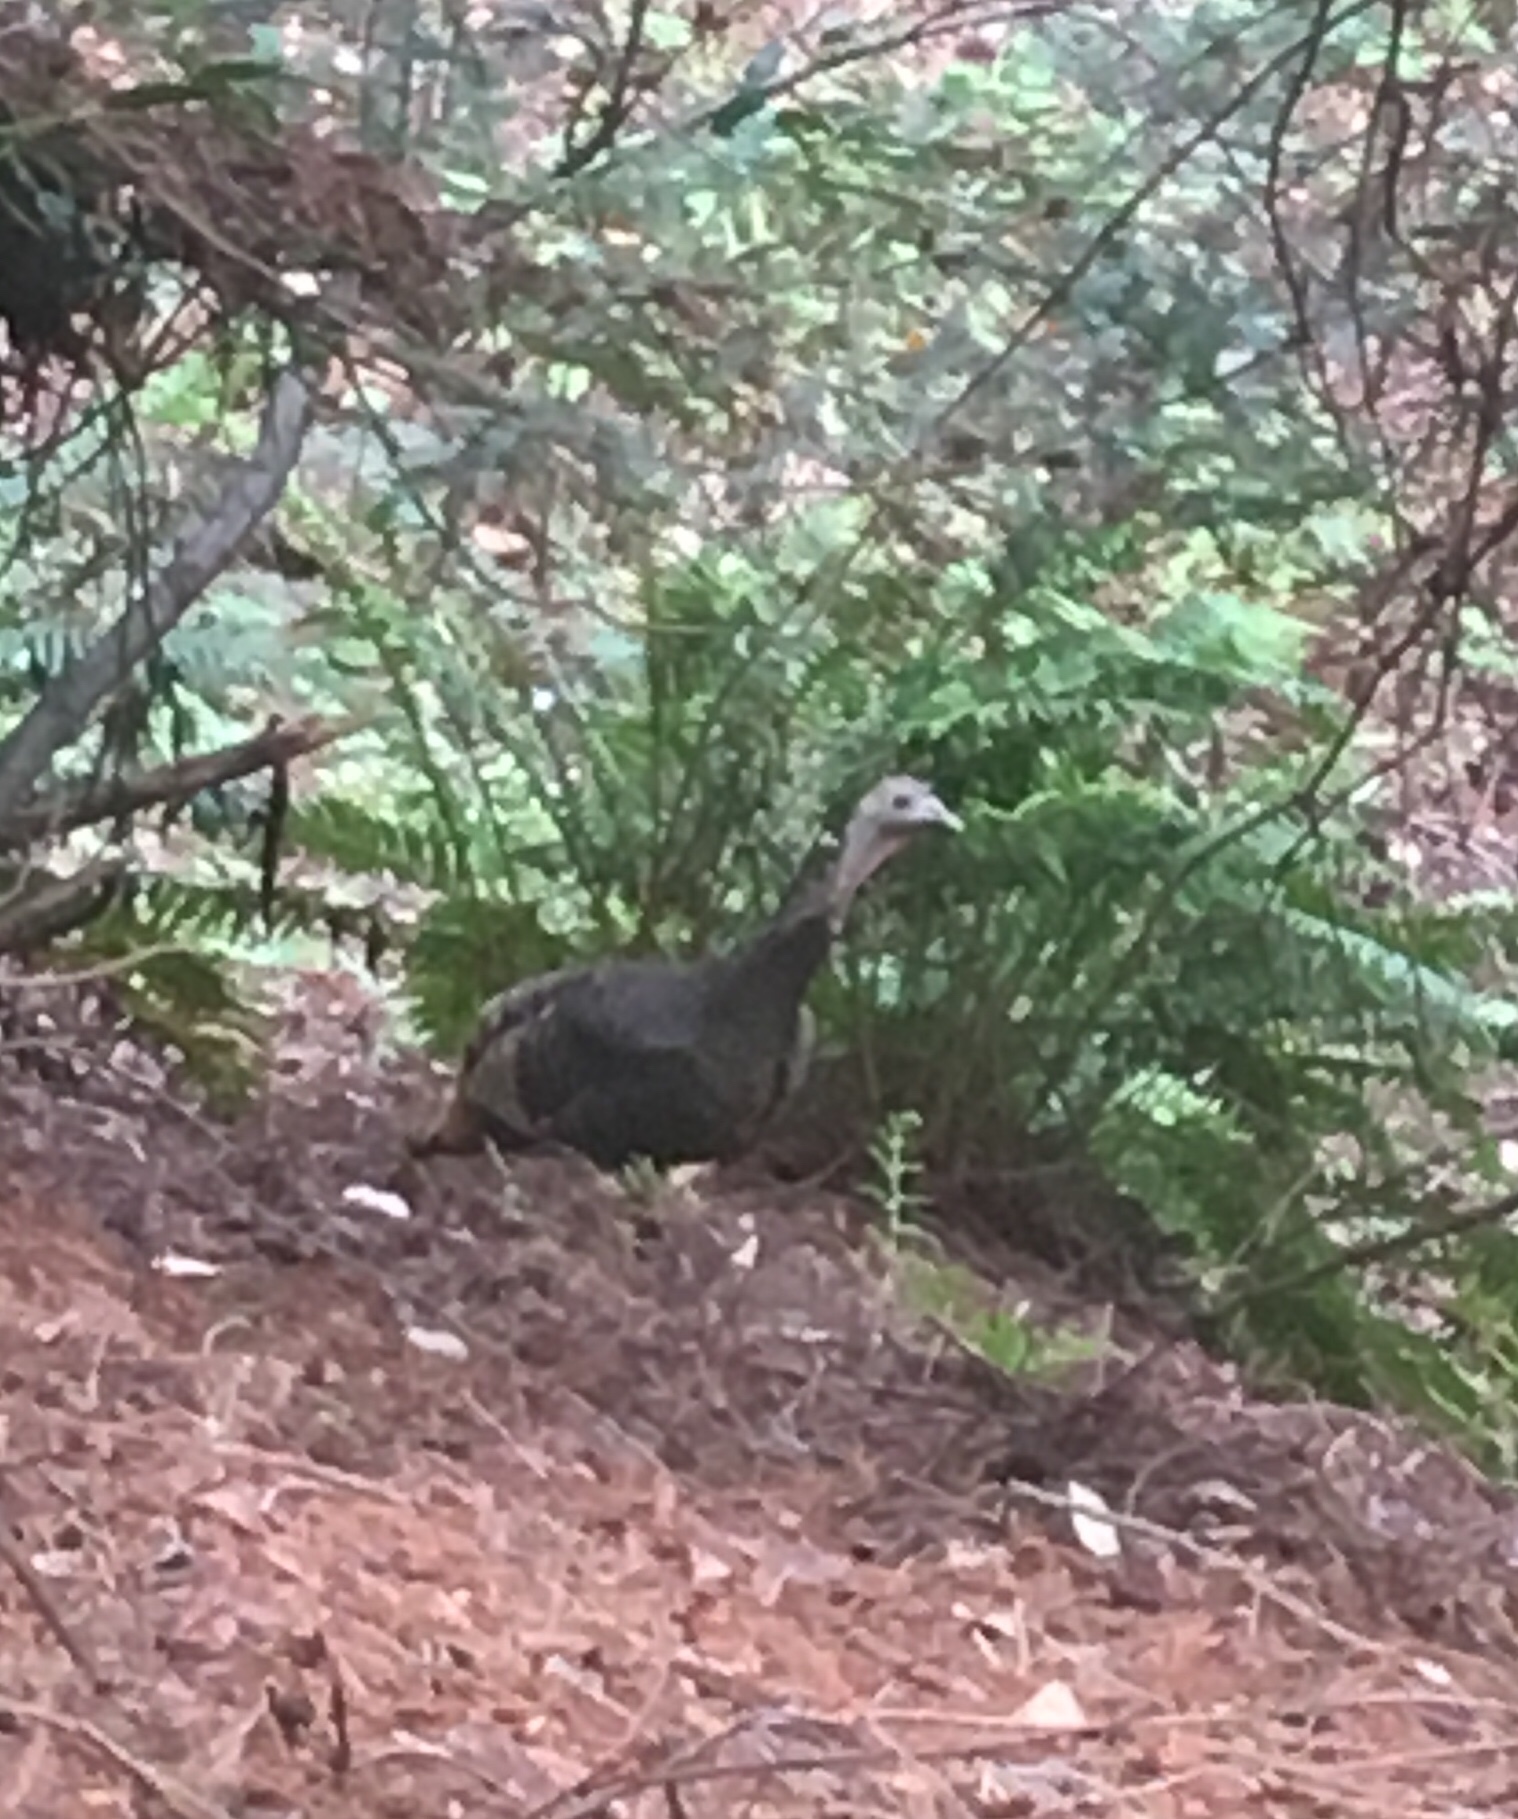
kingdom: Animalia
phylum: Chordata
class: Aves
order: Galliformes
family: Phasianidae
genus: Meleagris
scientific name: Meleagris gallopavo
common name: Wild turkey
